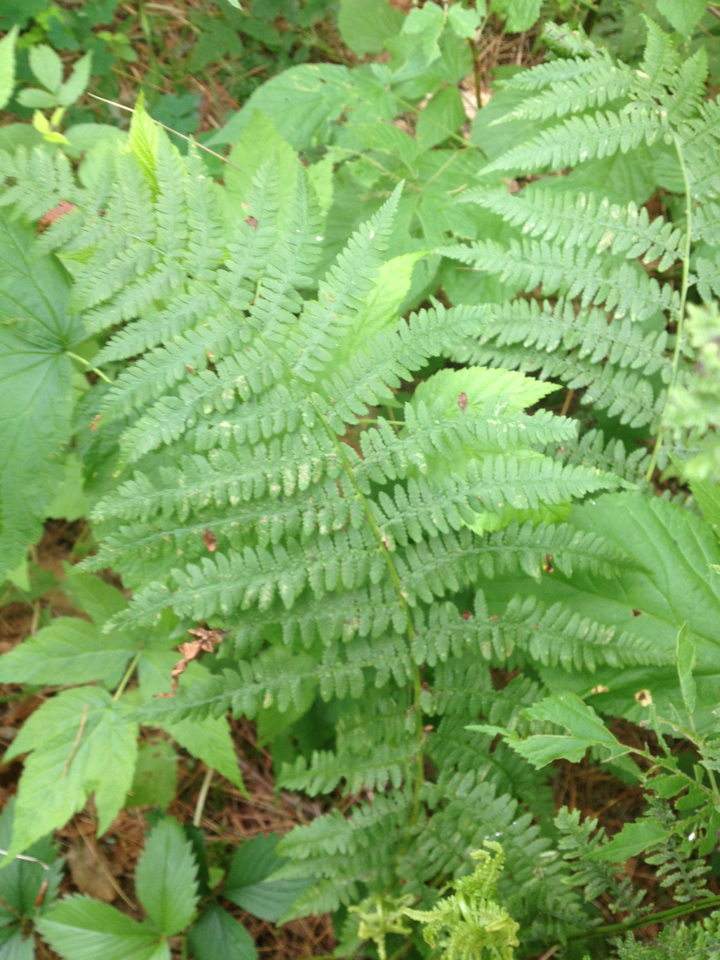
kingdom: Plantae
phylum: Tracheophyta
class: Polypodiopsida
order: Polypodiales
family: Athyriaceae
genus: Athyrium
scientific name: Athyrium angustum
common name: Northern lady fern
